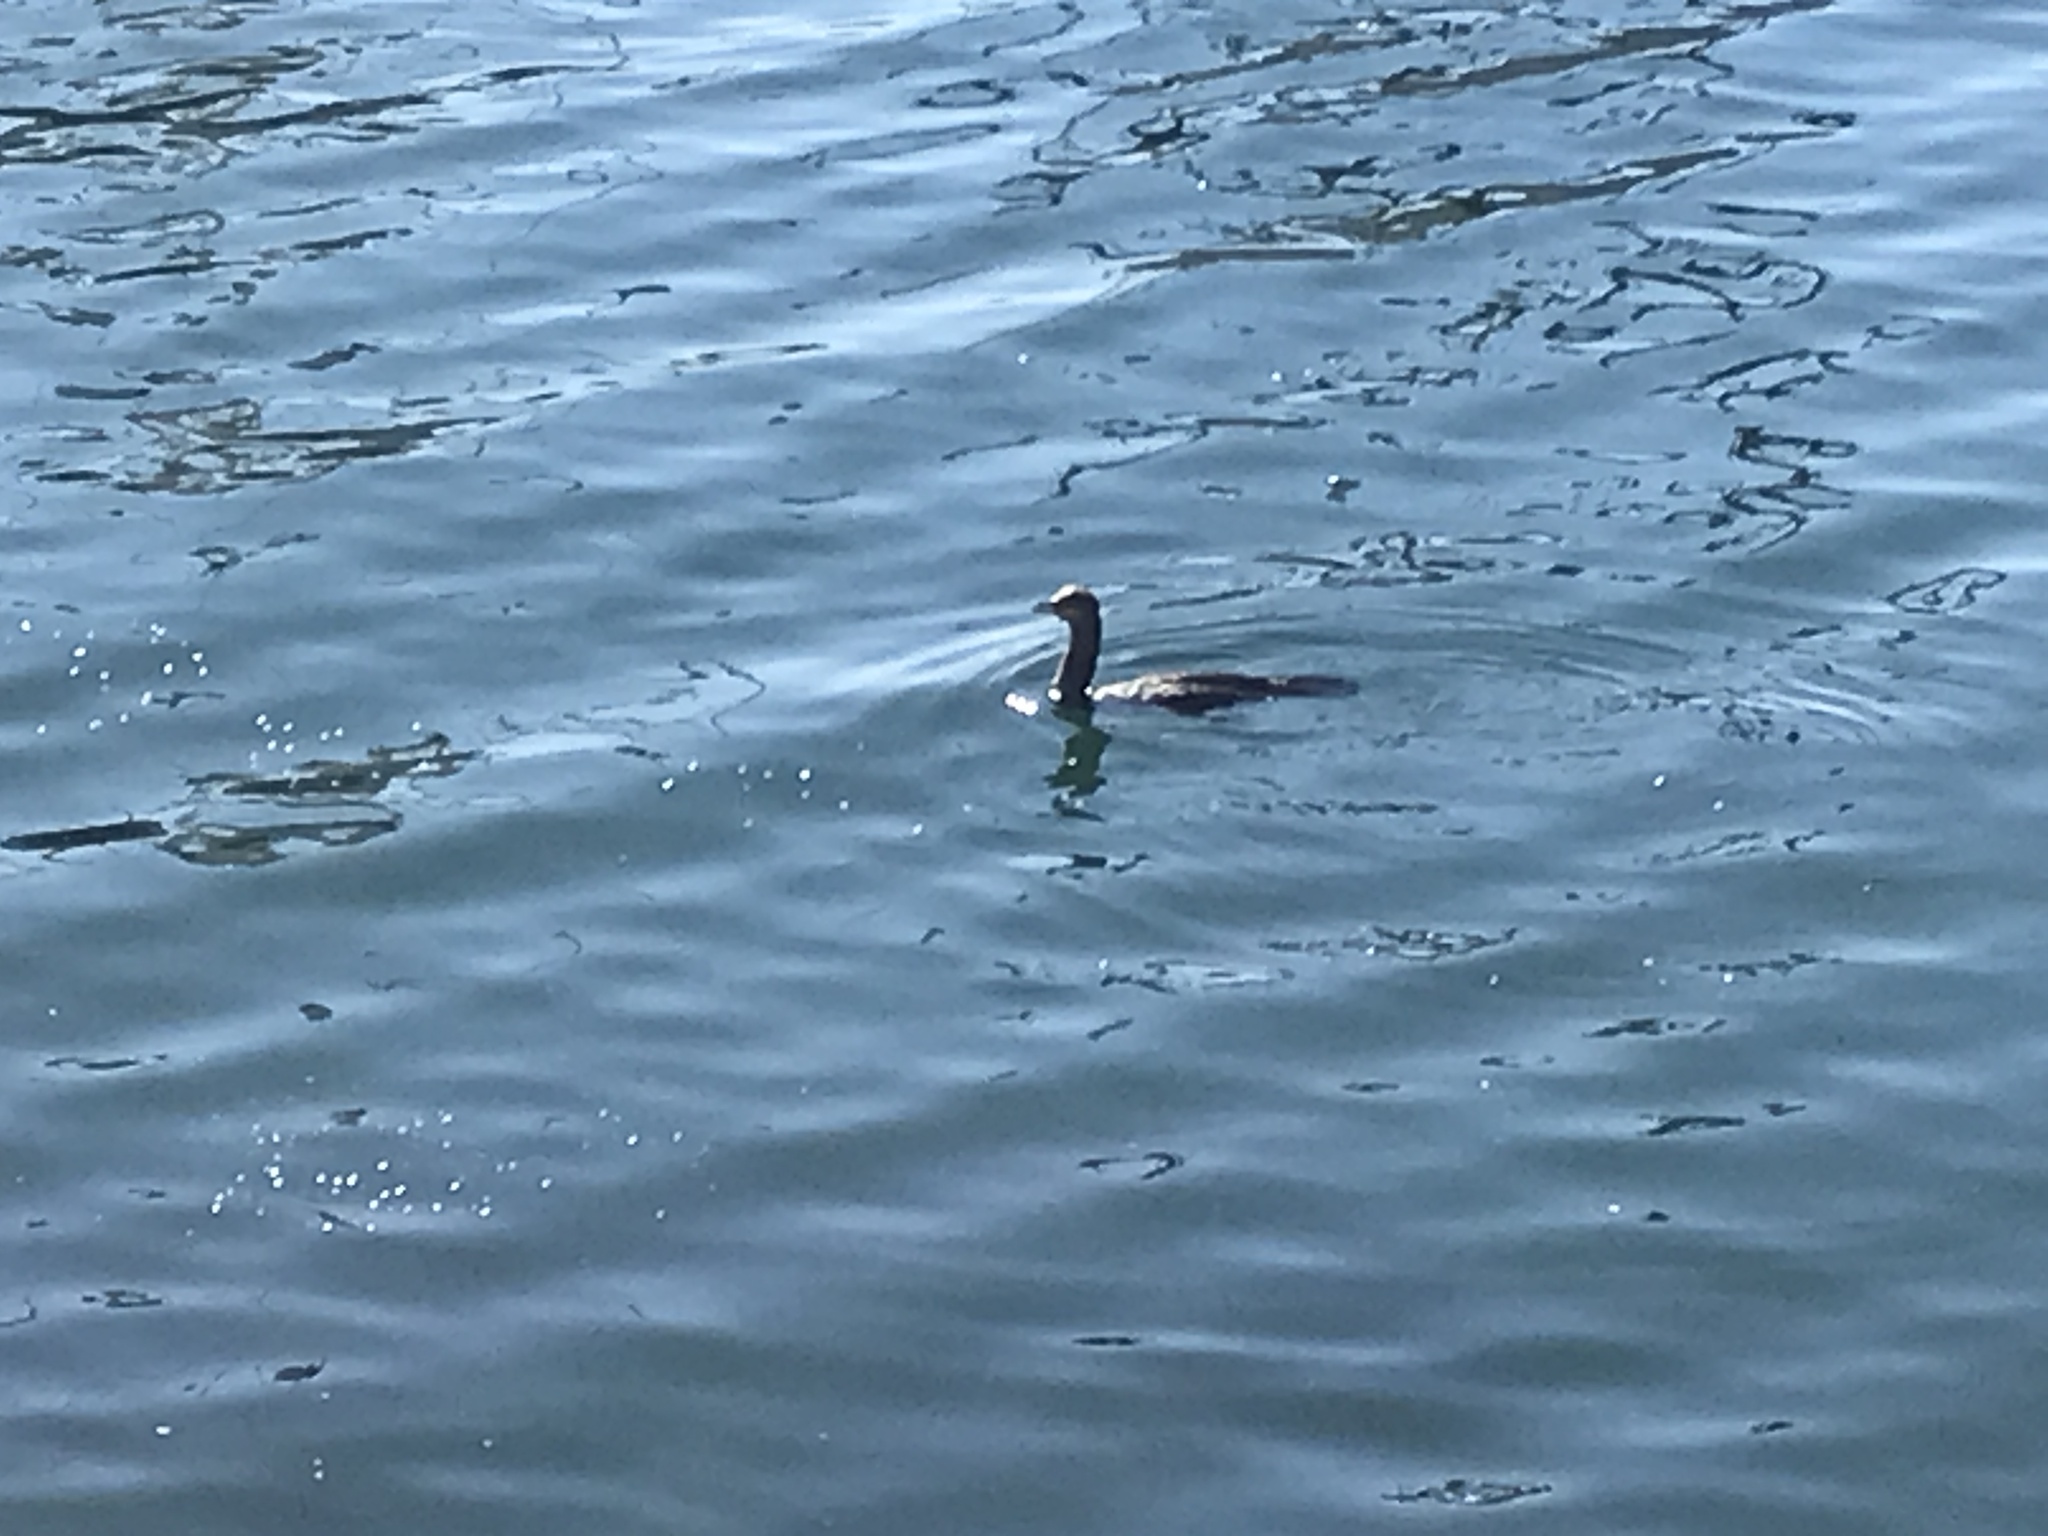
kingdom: Animalia
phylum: Chordata
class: Aves
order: Suliformes
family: Phalacrocoracidae
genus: Phalacrocorax
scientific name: Phalacrocorax auritus
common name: Double-crested cormorant
